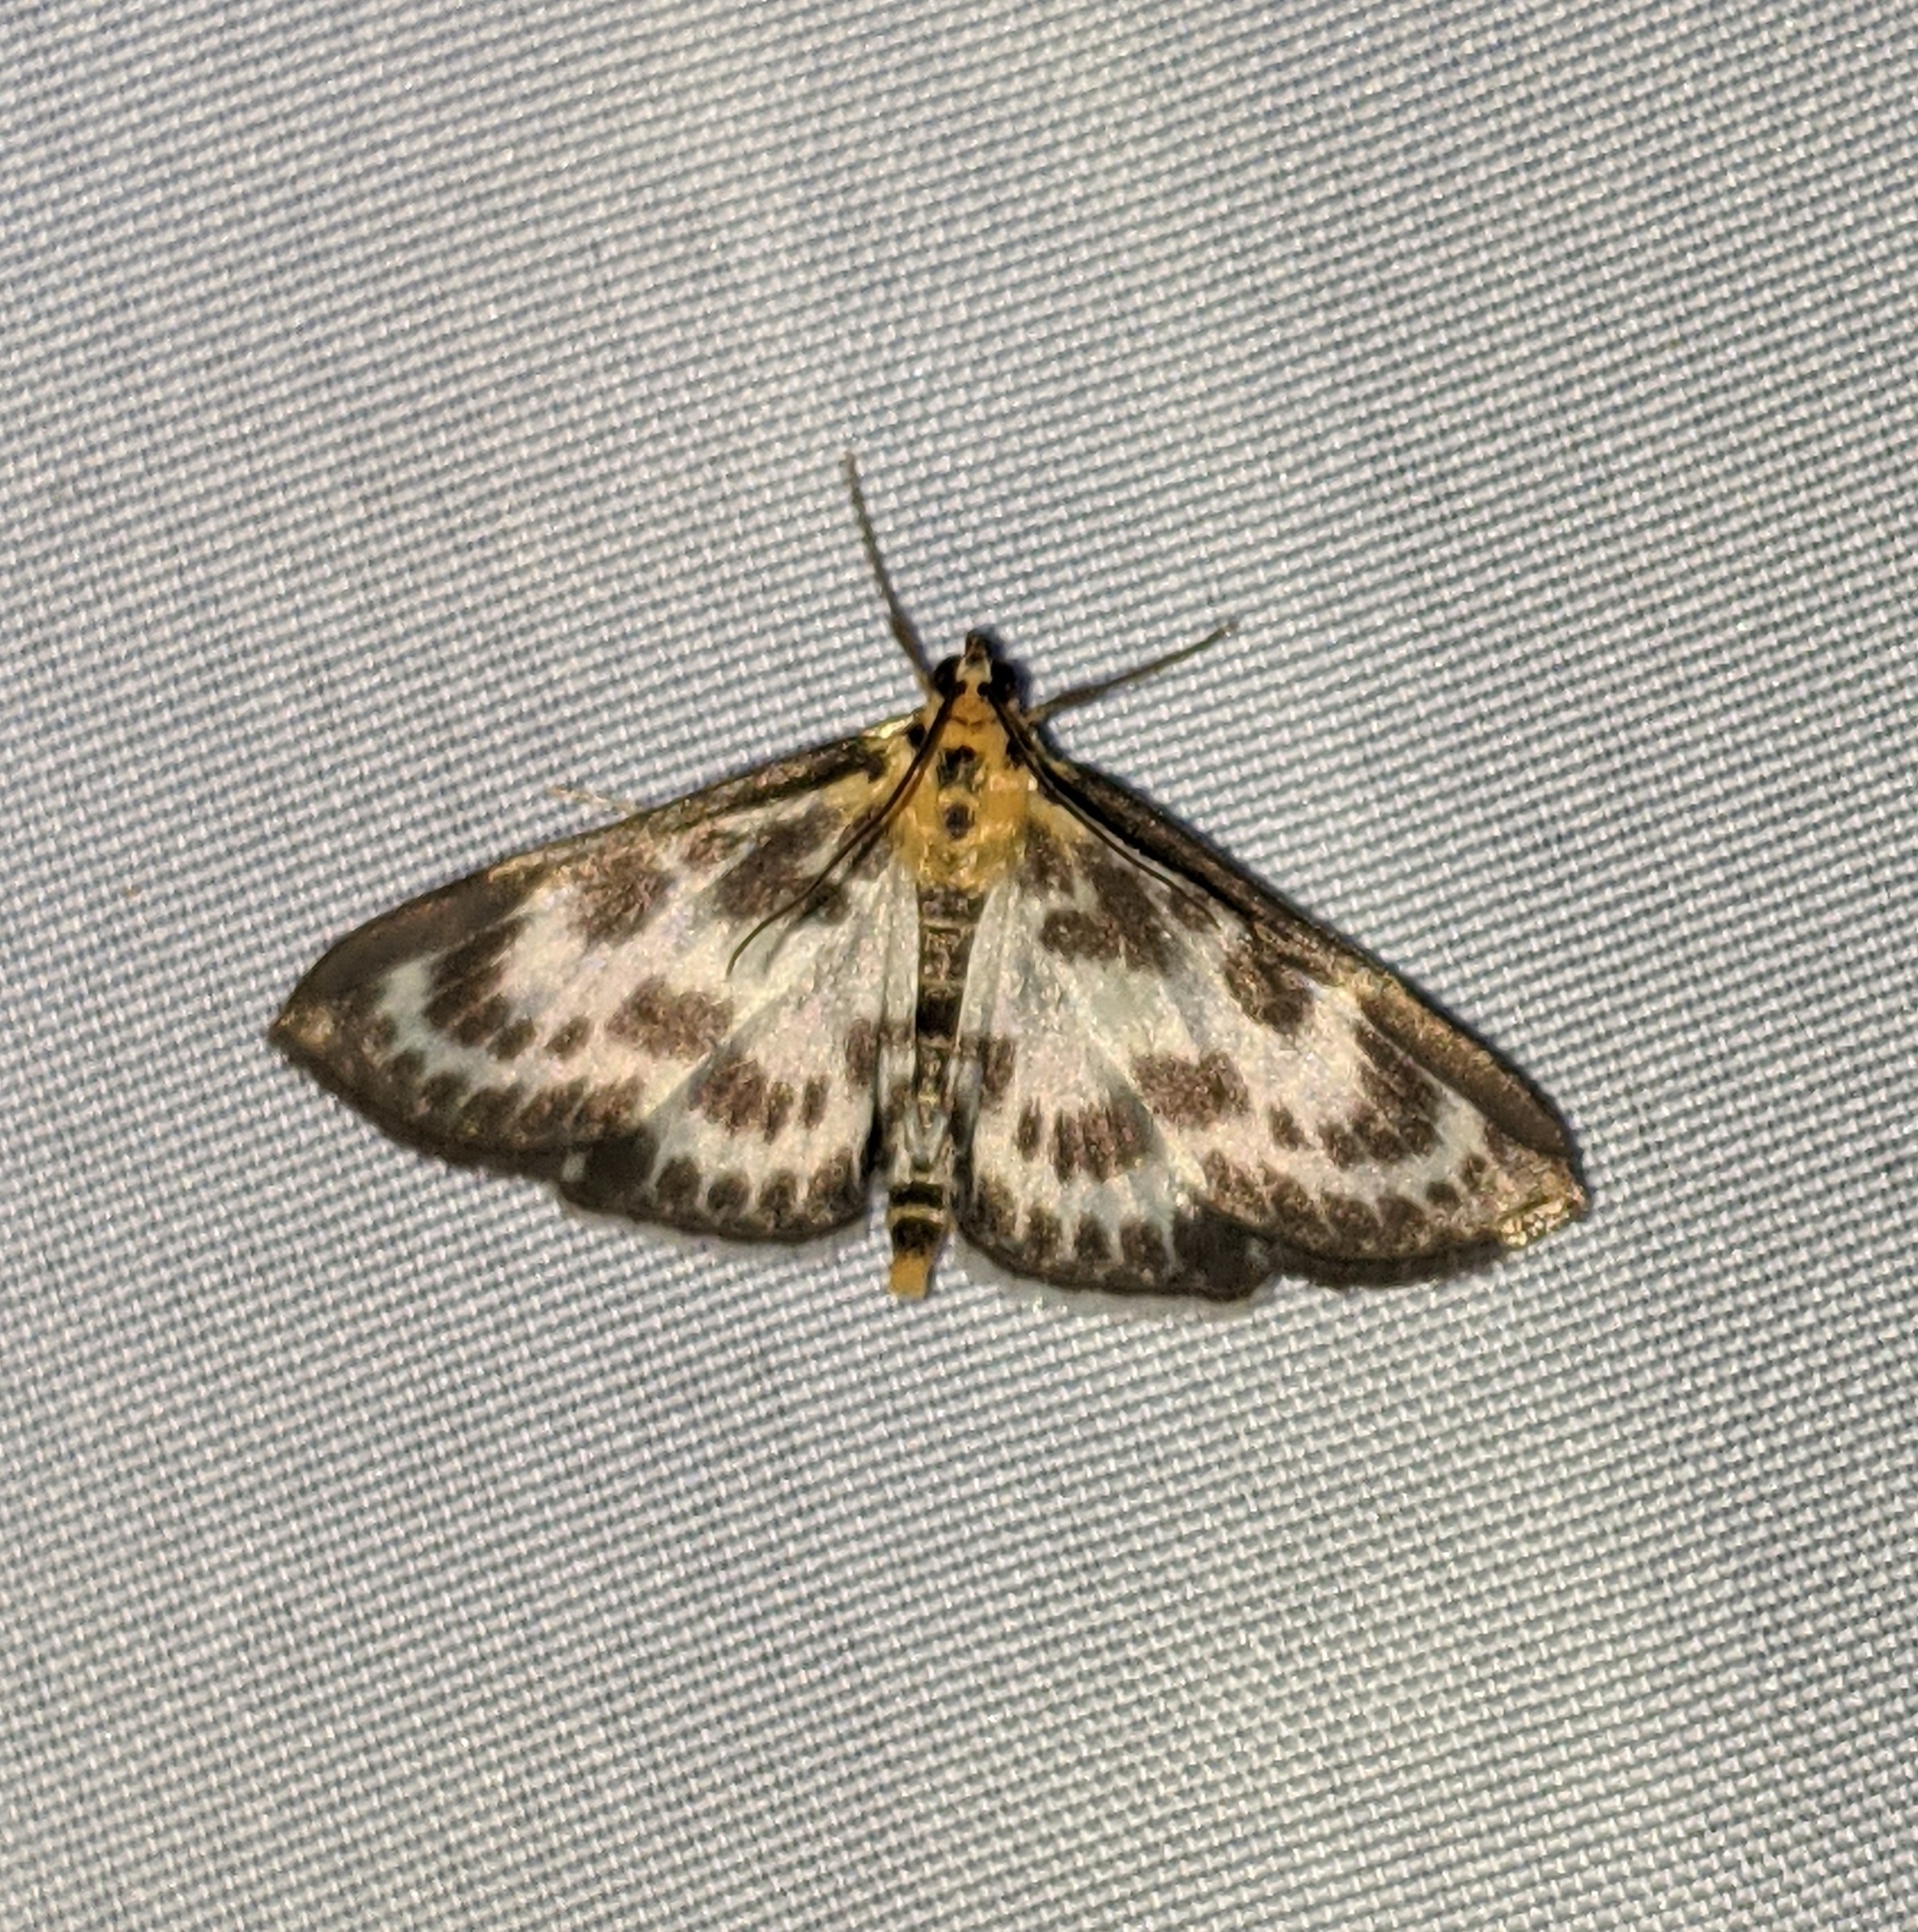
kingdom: Animalia
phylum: Arthropoda
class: Insecta
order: Lepidoptera
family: Crambidae
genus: Anania
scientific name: Anania hortulata
